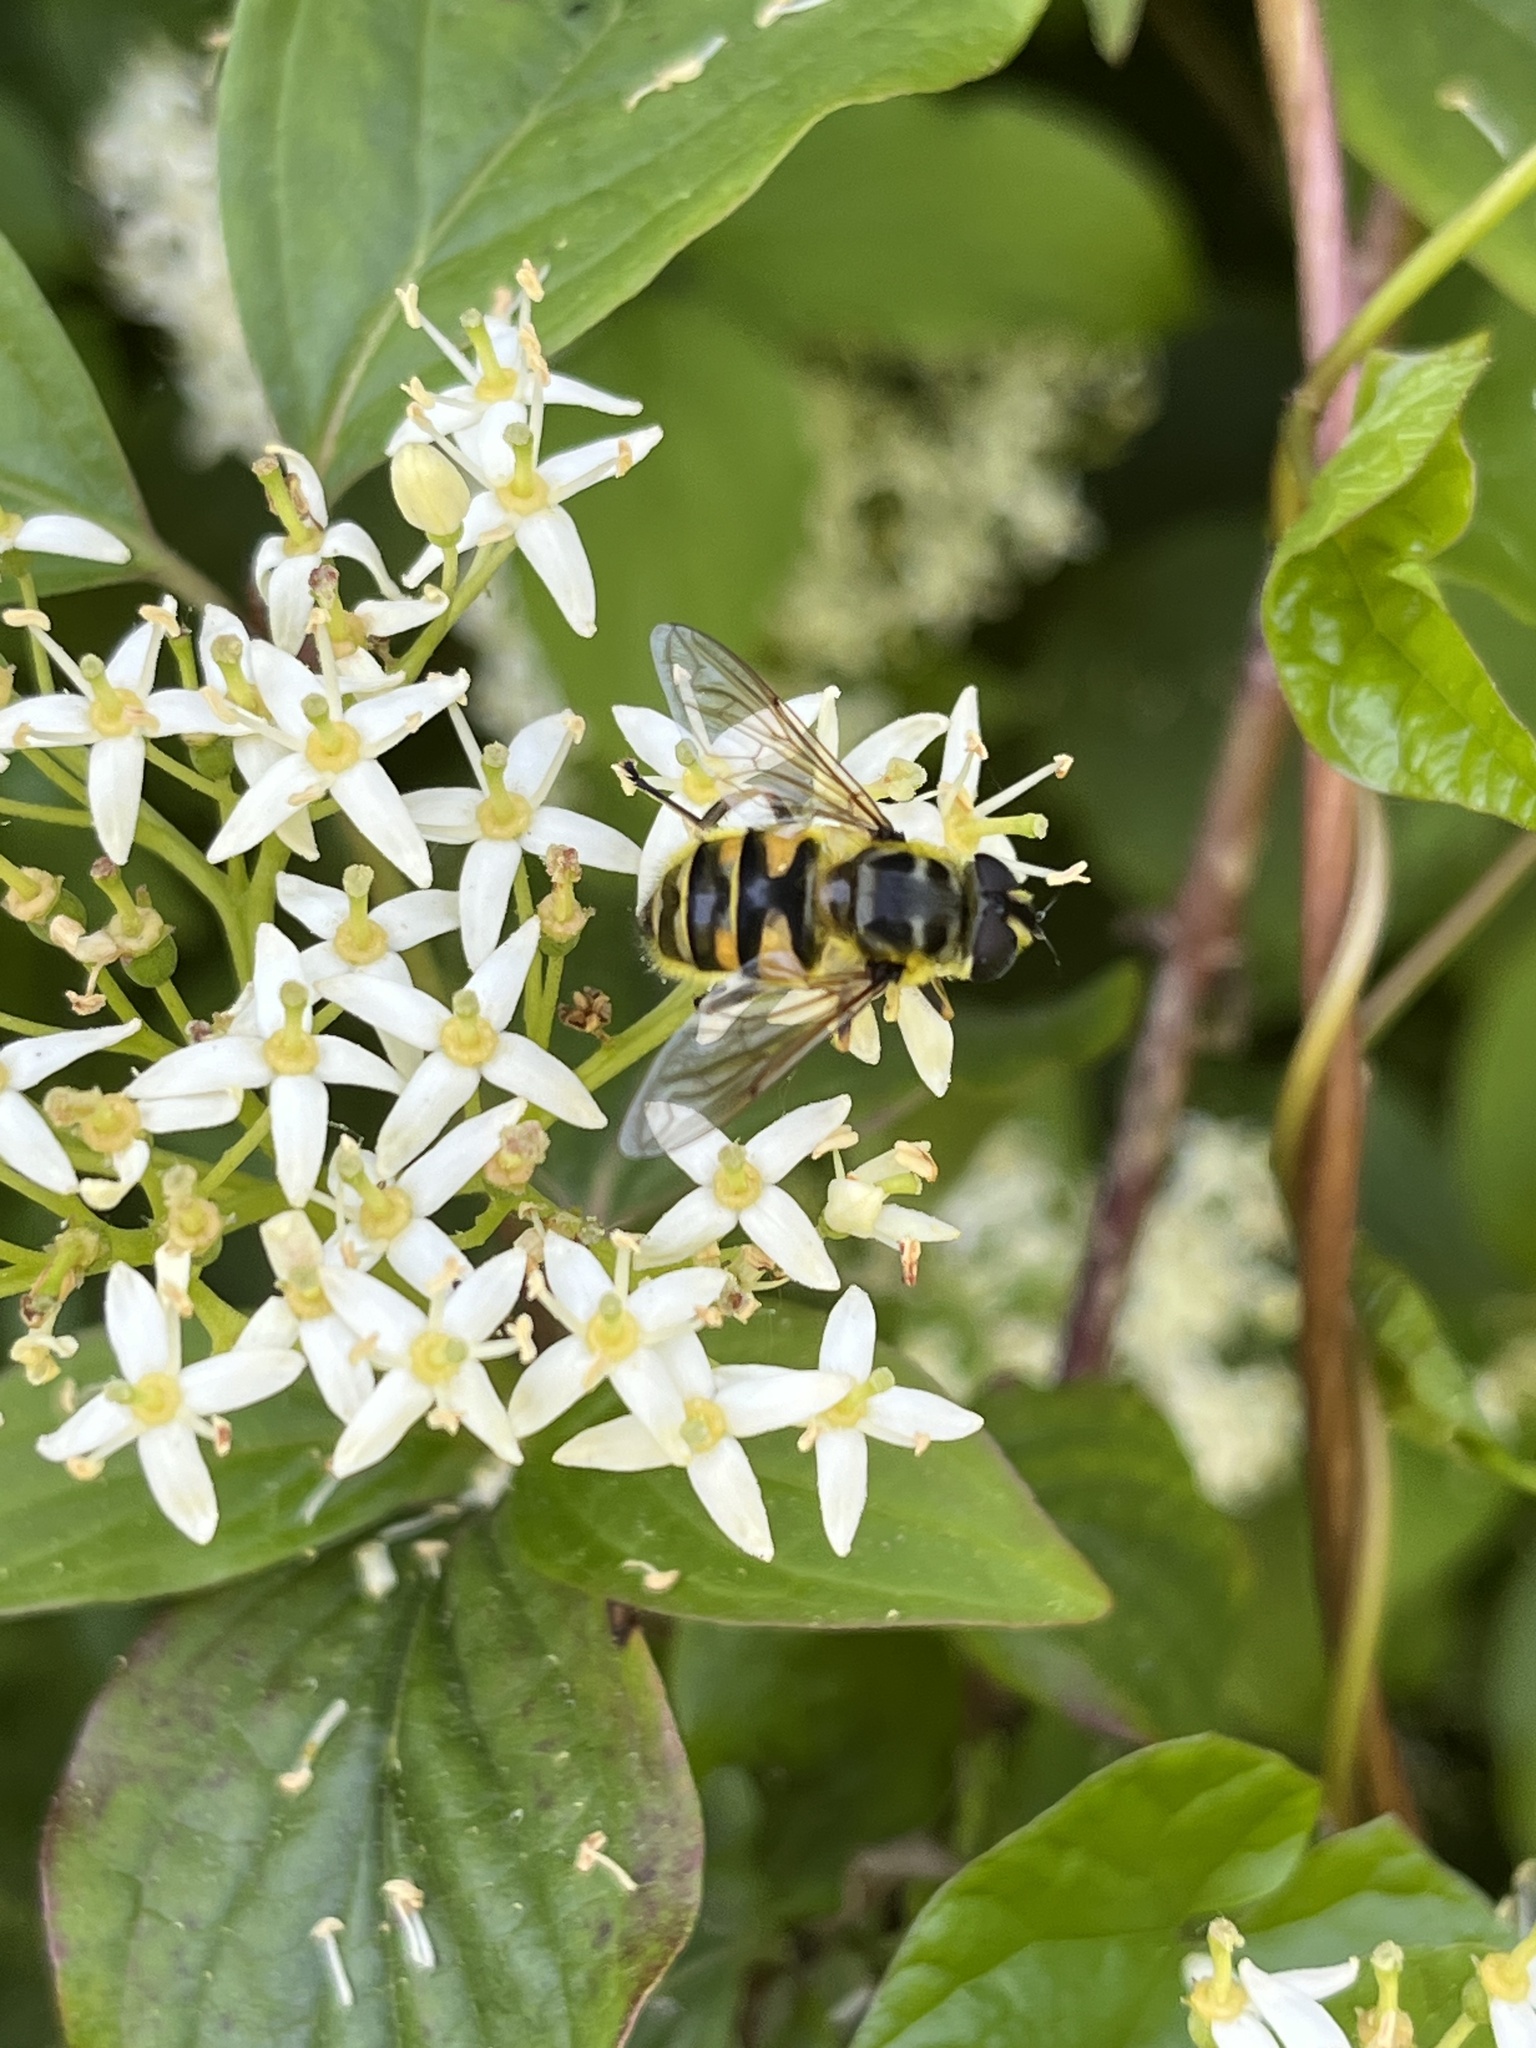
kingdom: Animalia
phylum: Arthropoda
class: Insecta
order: Diptera
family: Syrphidae
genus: Myathropa
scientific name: Myathropa florea
